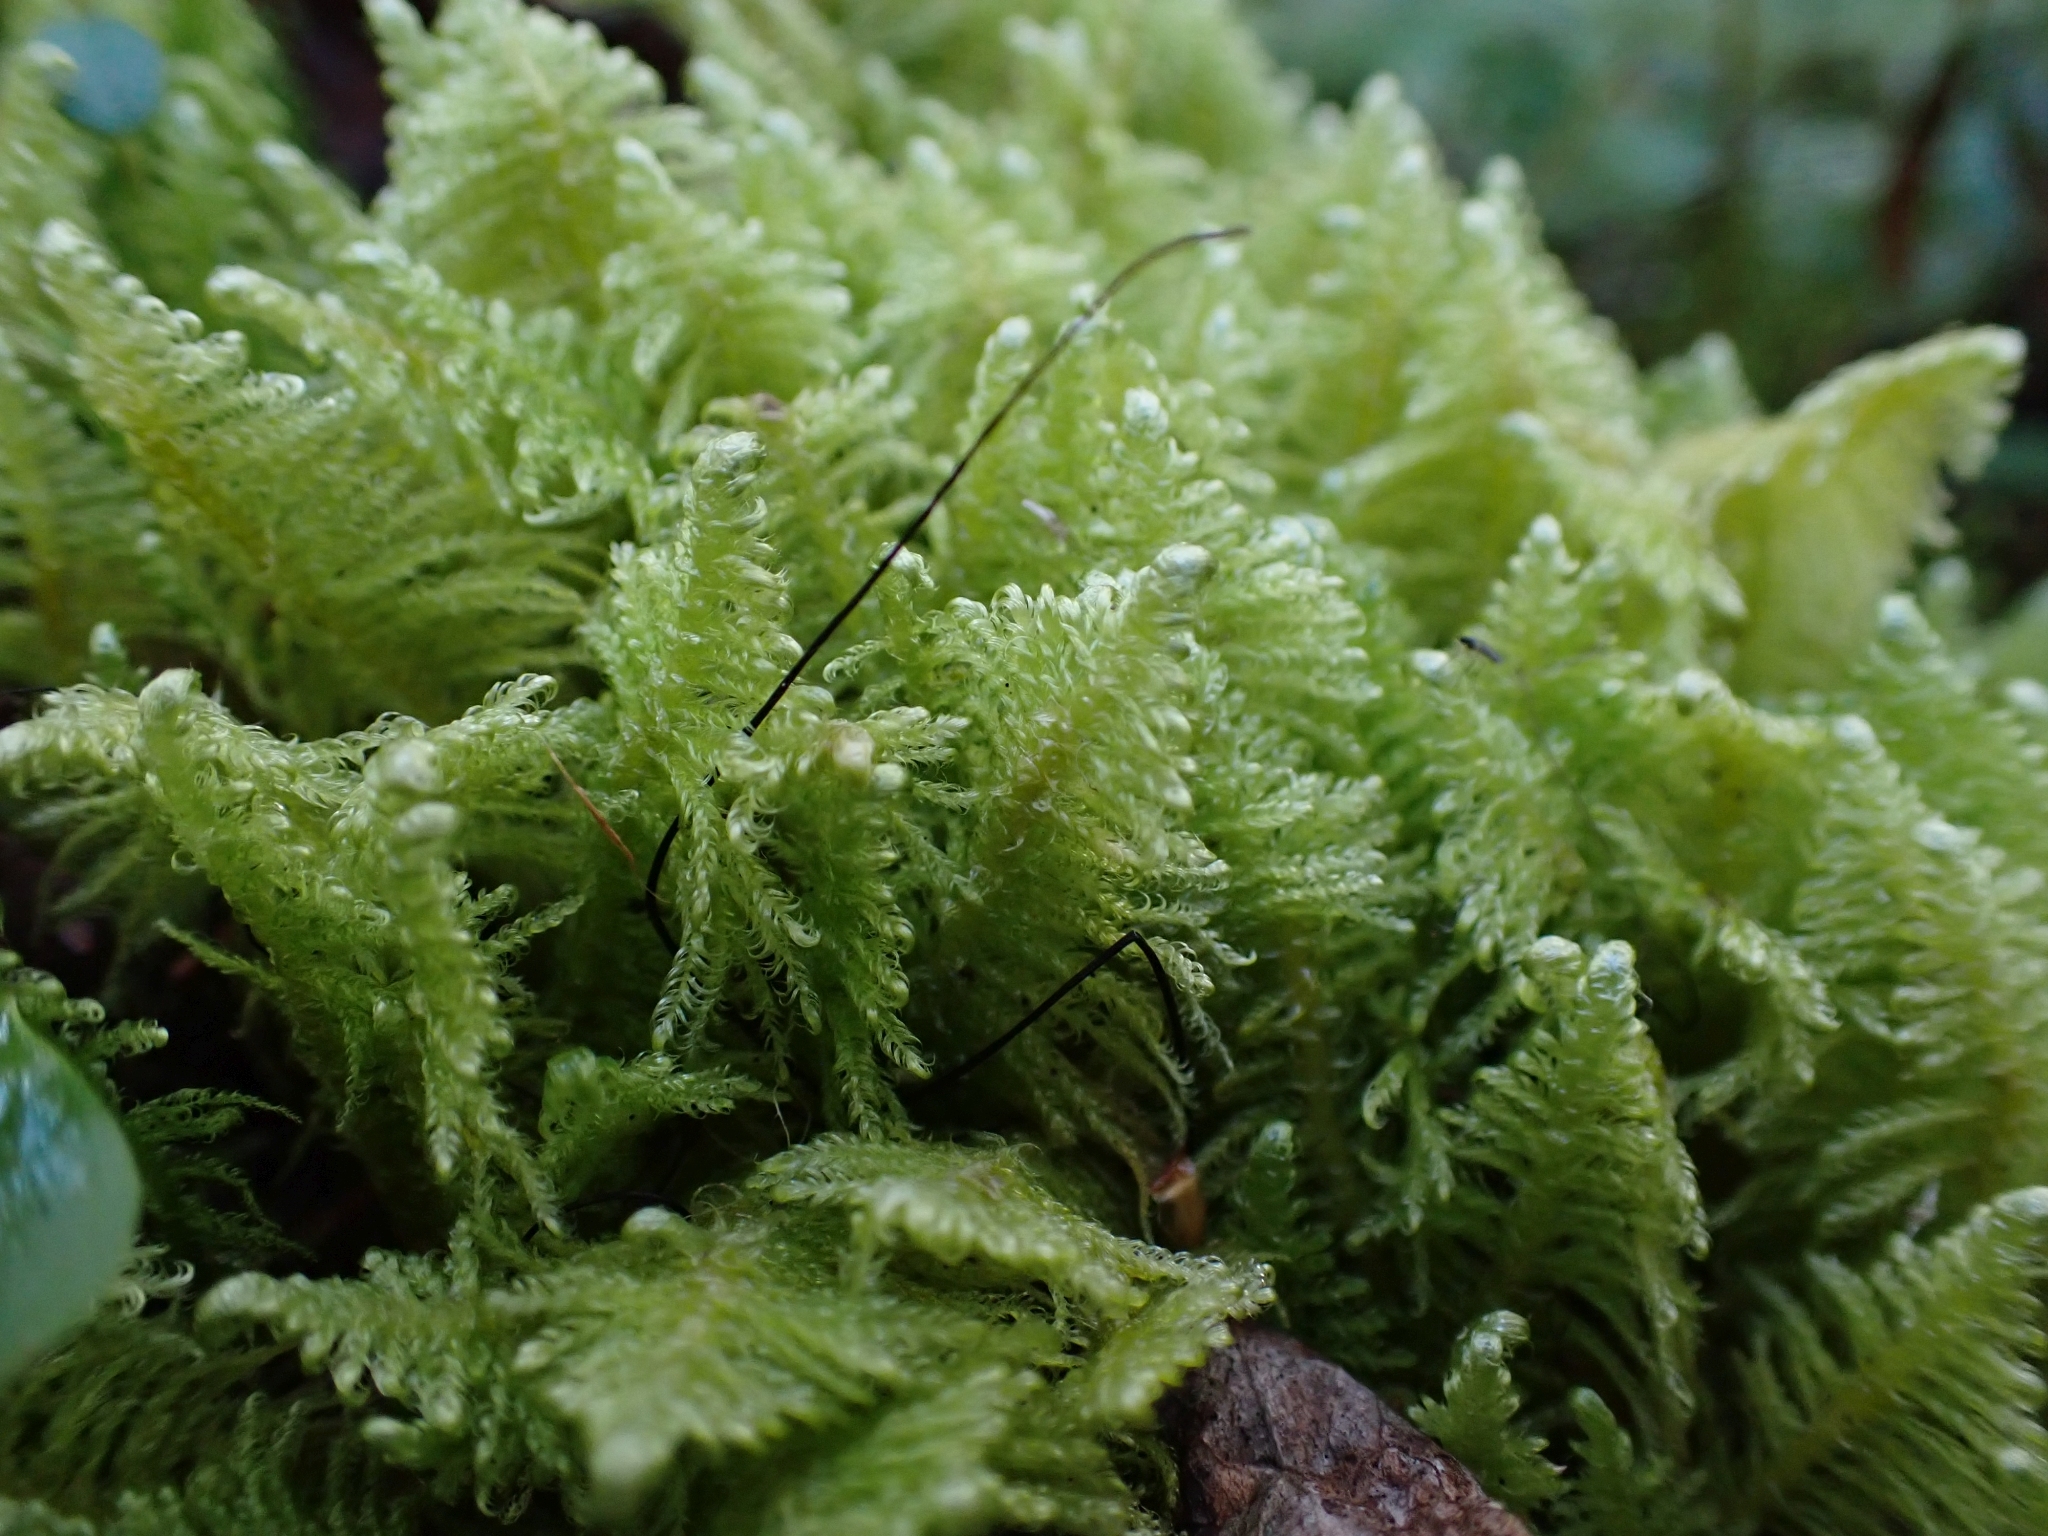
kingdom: Plantae
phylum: Bryophyta
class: Bryopsida
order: Hypnales
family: Pylaisiaceae
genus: Ptilium
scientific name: Ptilium crista-castrensis
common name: Knight's plume moss
